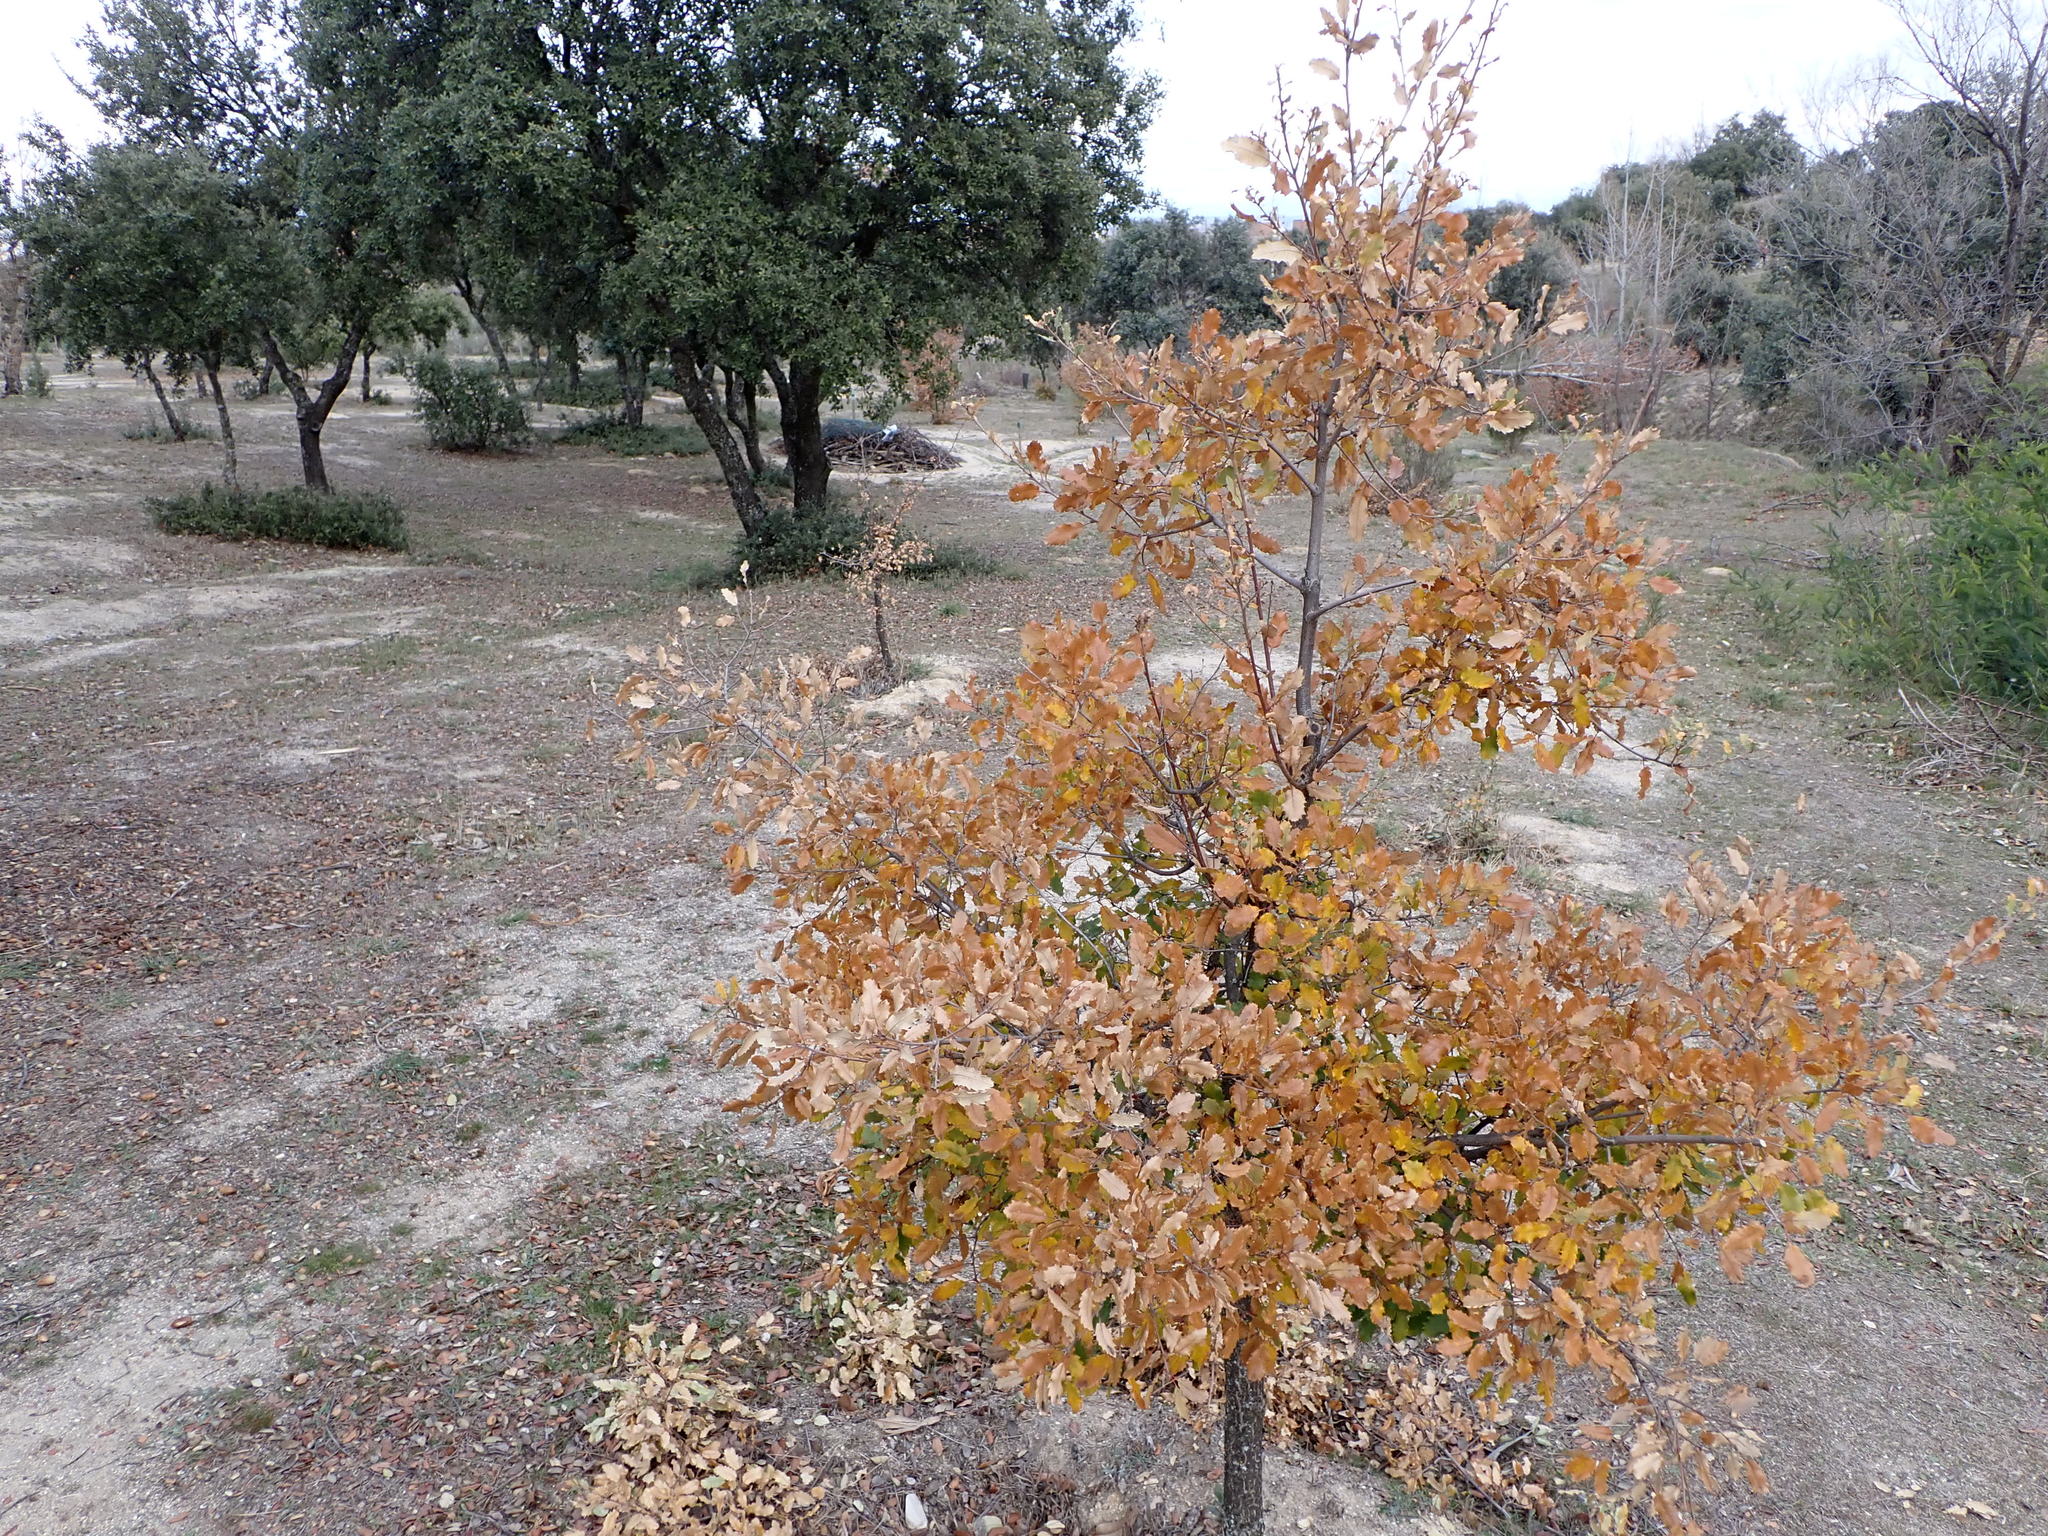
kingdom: Plantae
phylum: Tracheophyta
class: Magnoliopsida
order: Fagales
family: Fagaceae
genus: Quercus
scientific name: Quercus faginea
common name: Gall oak tree
